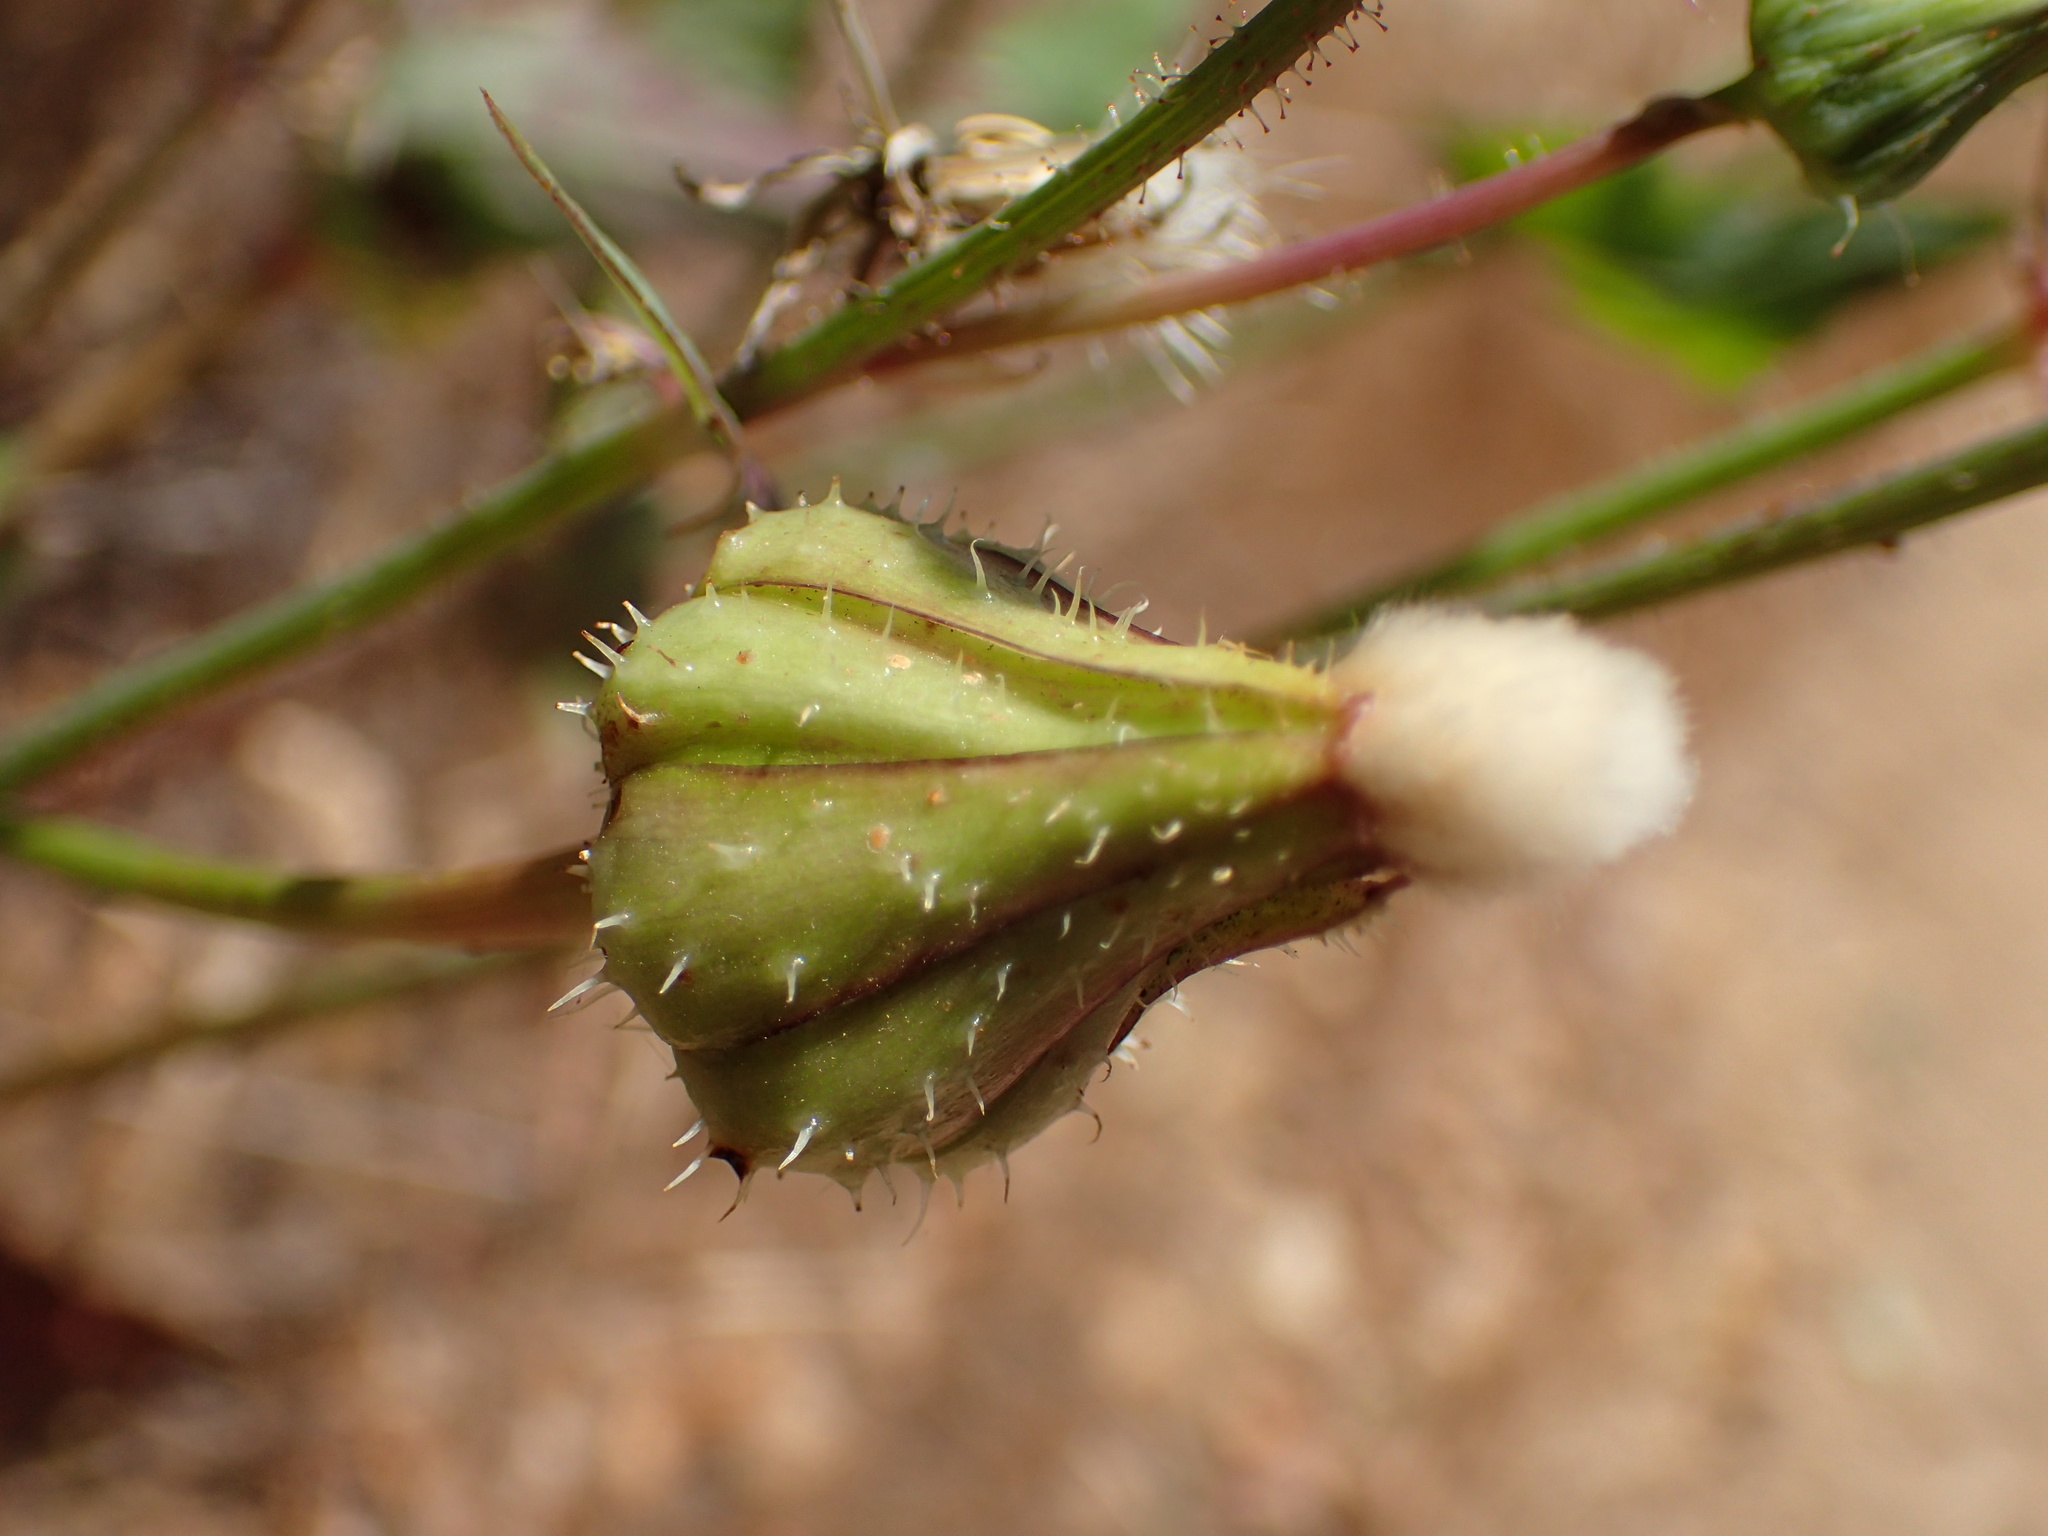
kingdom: Plantae
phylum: Tracheophyta
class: Magnoliopsida
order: Asterales
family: Asteraceae
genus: Urospermum
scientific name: Urospermum picroides
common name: False hawkbit
